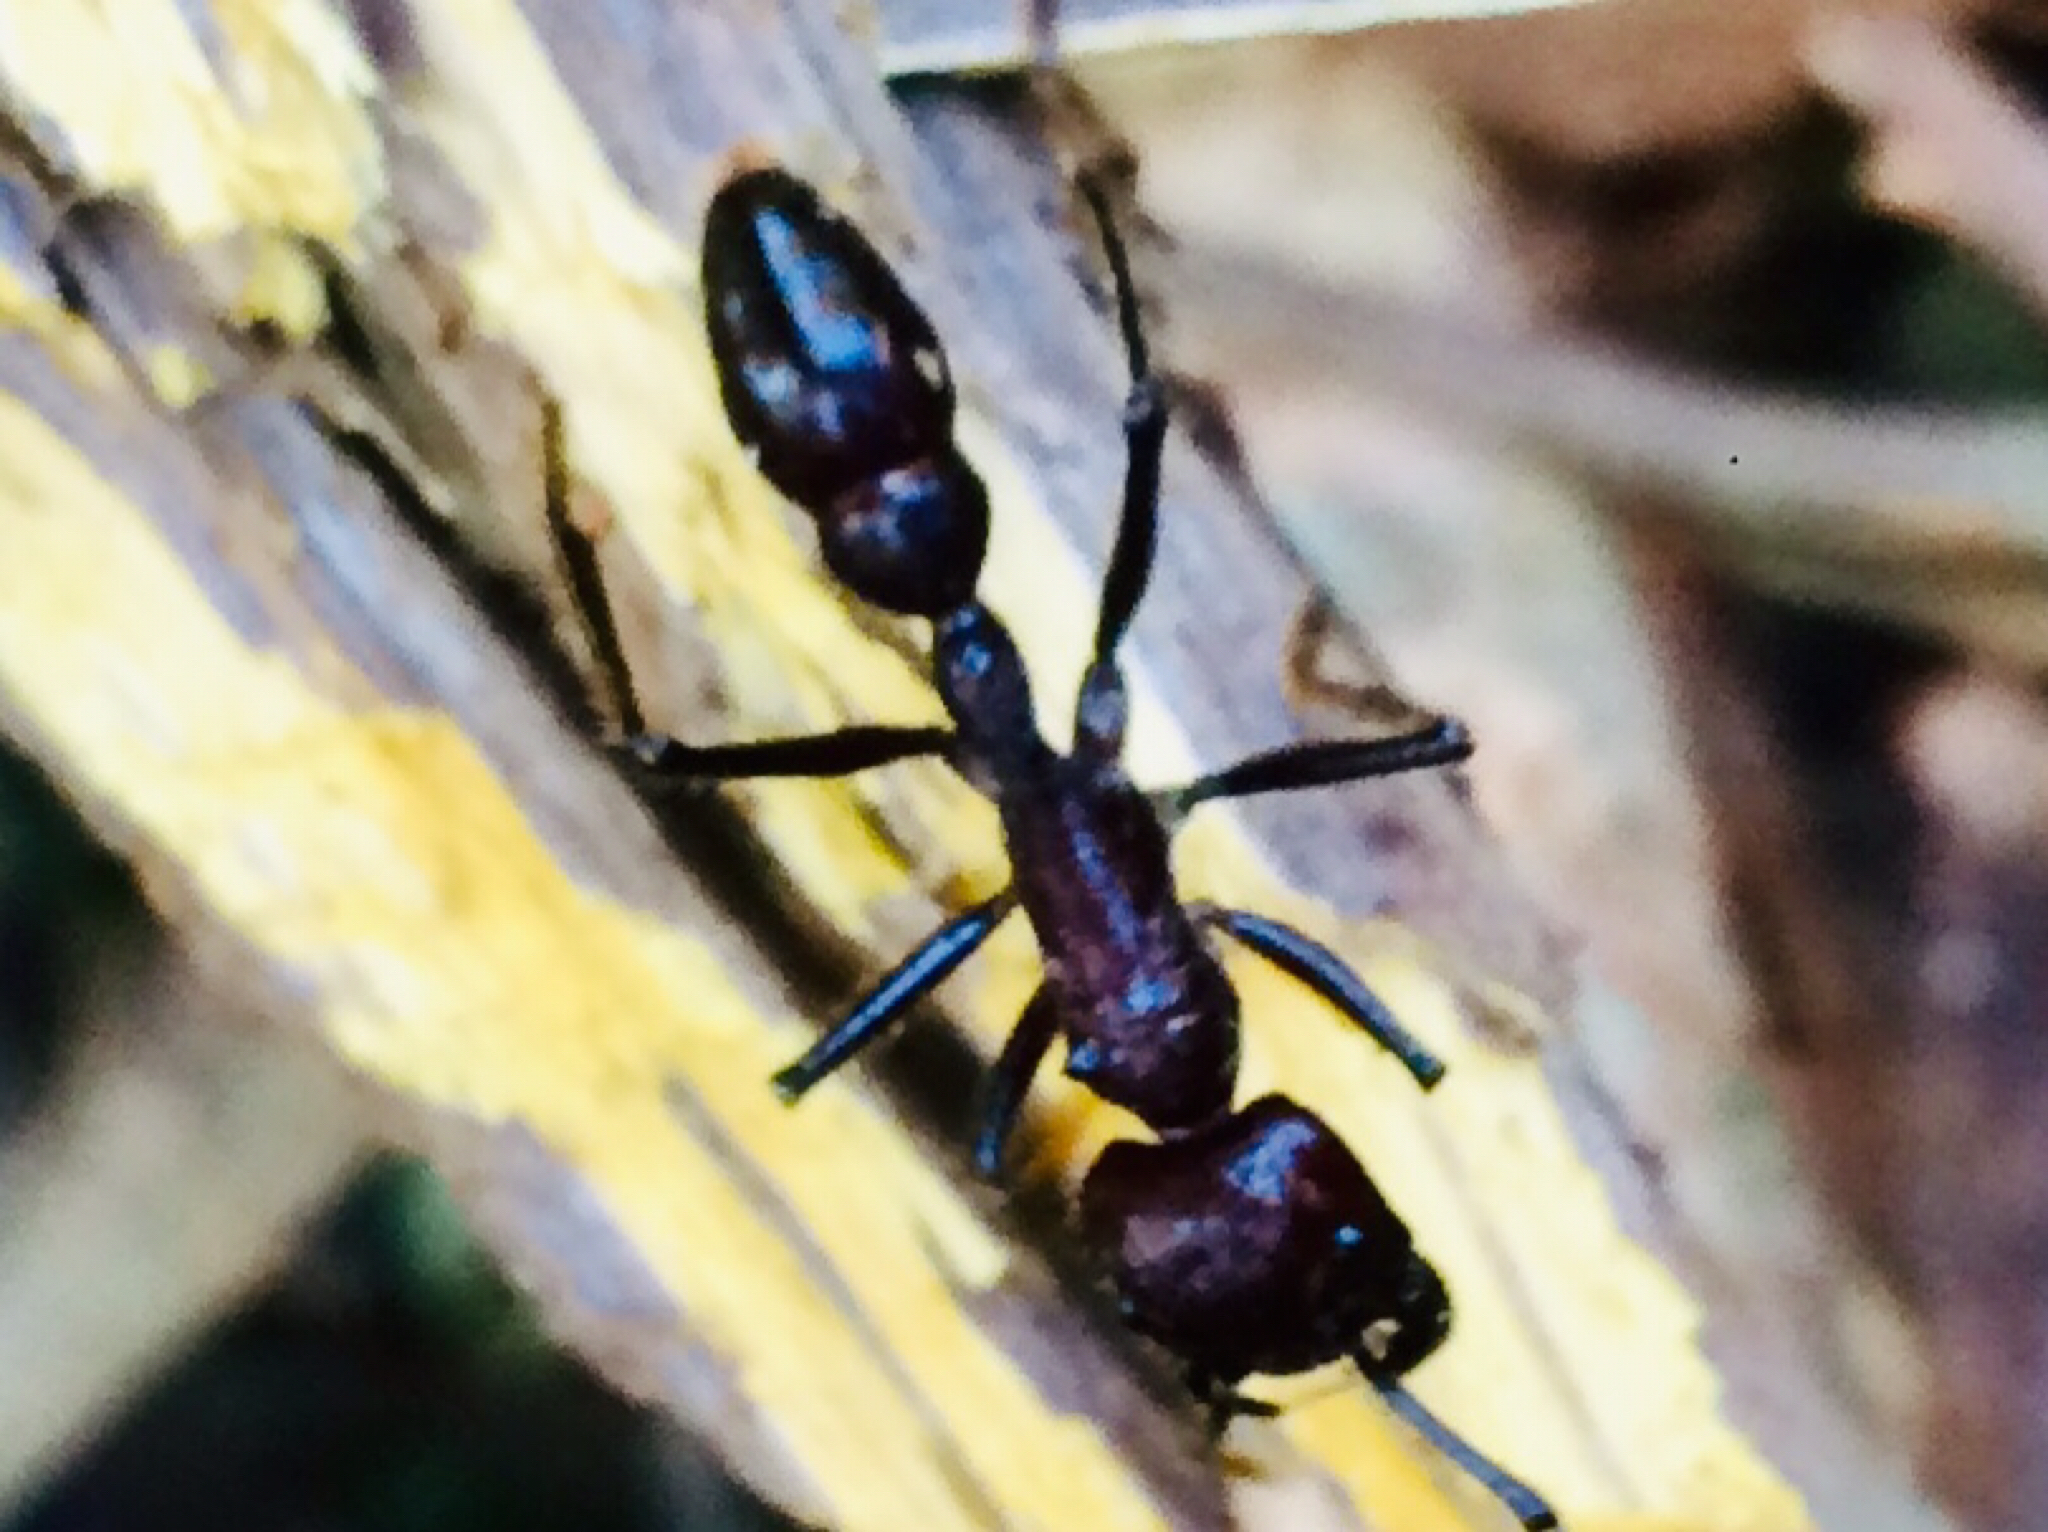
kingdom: Animalia
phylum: Arthropoda
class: Insecta
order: Hymenoptera
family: Formicidae
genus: Paraponera
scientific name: Paraponera clavata
